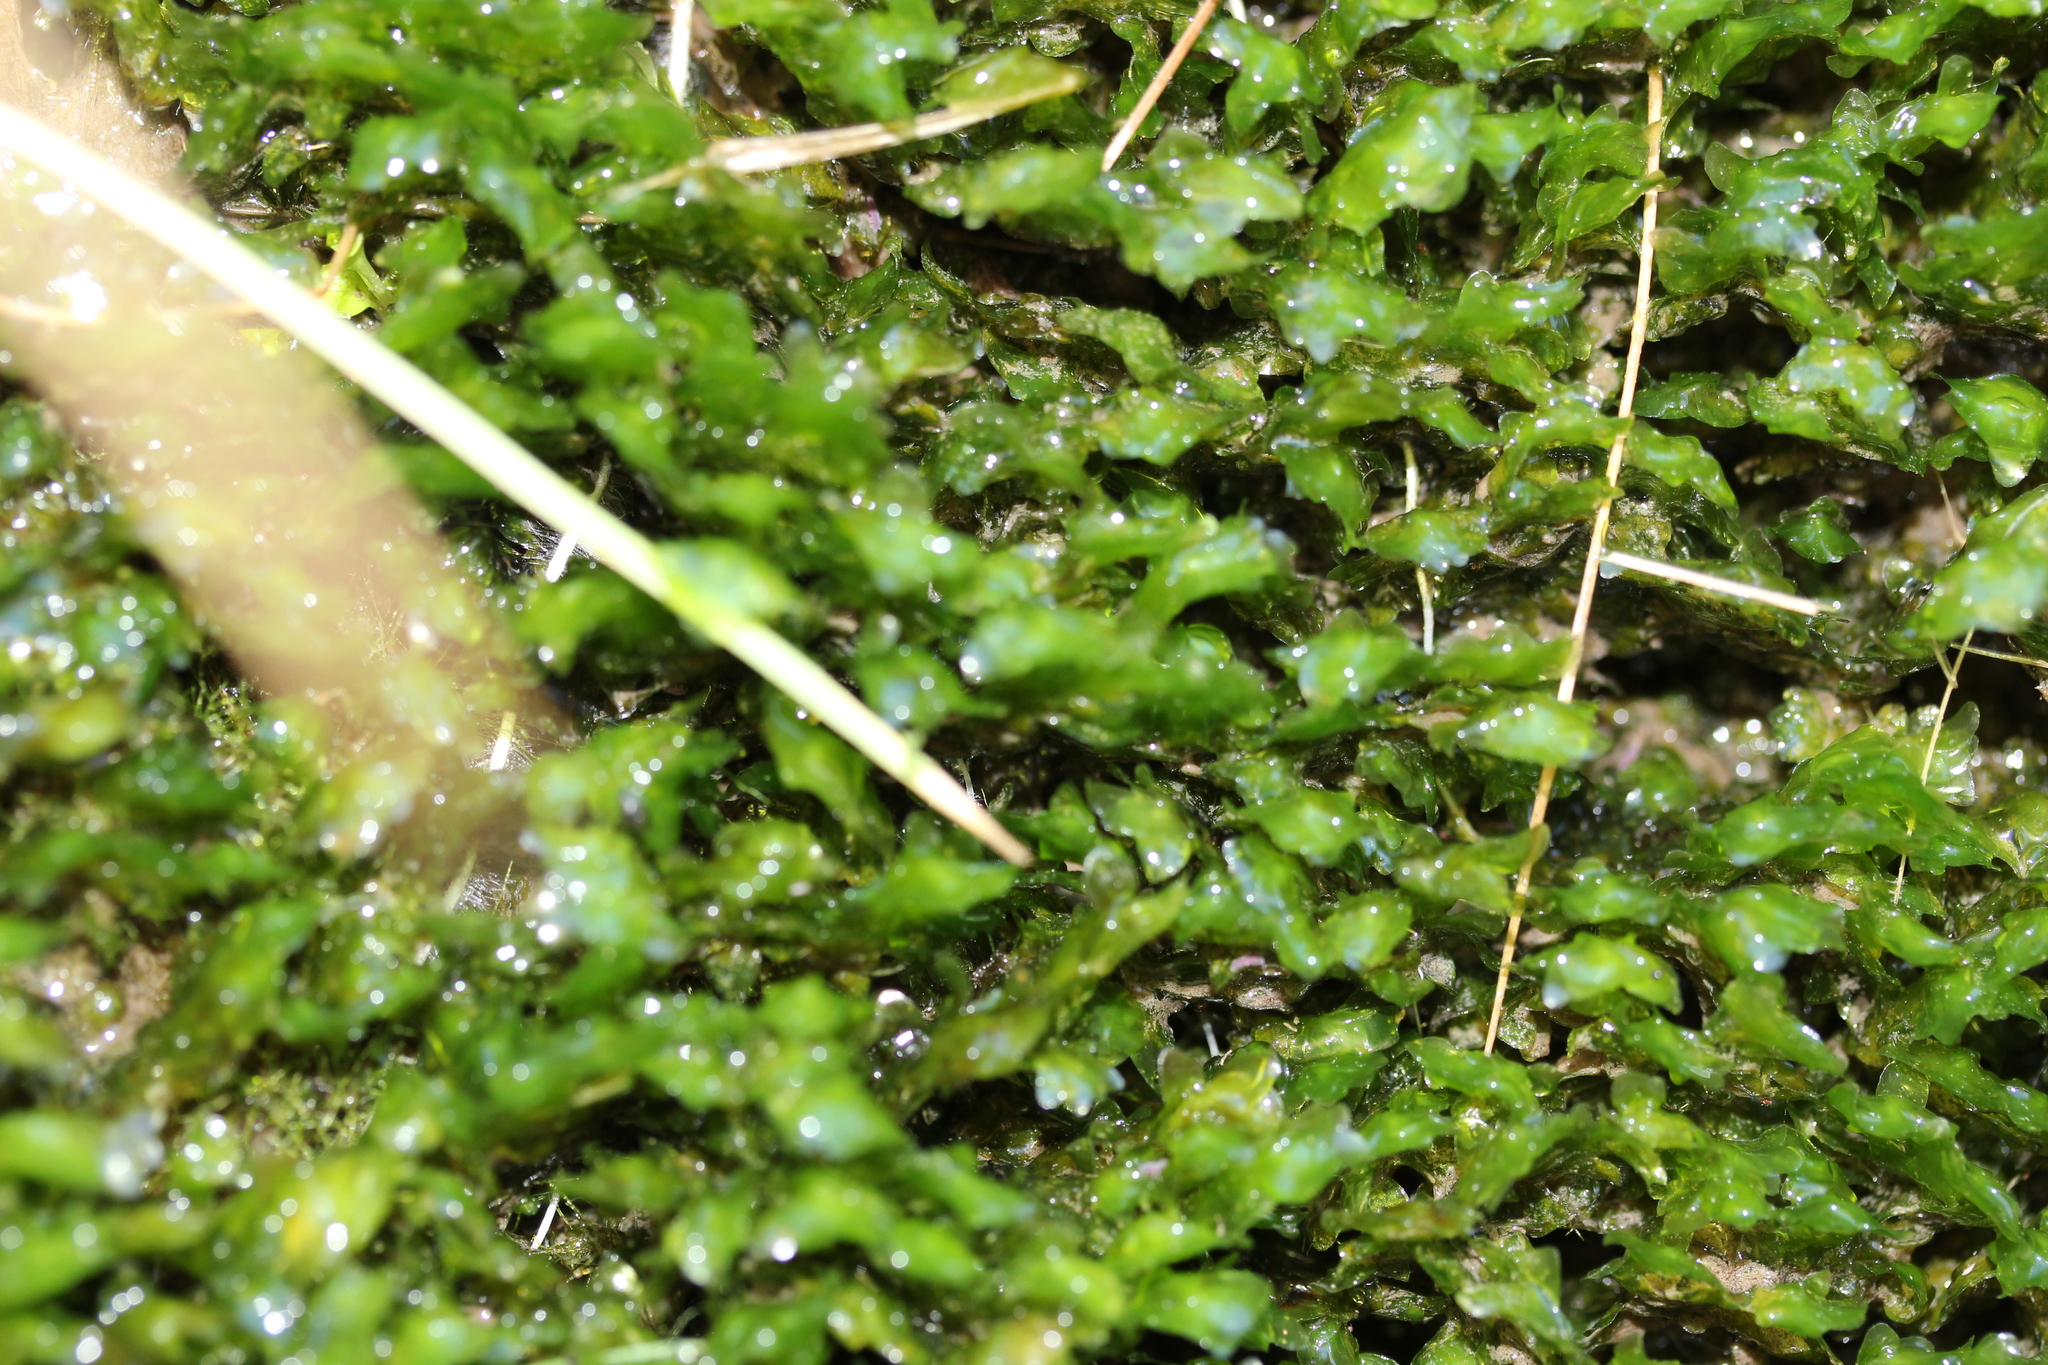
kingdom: Plantae
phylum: Bryophyta
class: Bryopsida
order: Hookeriales
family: Daltoniaceae
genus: Achrophyllum
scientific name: Achrophyllum dentatum
